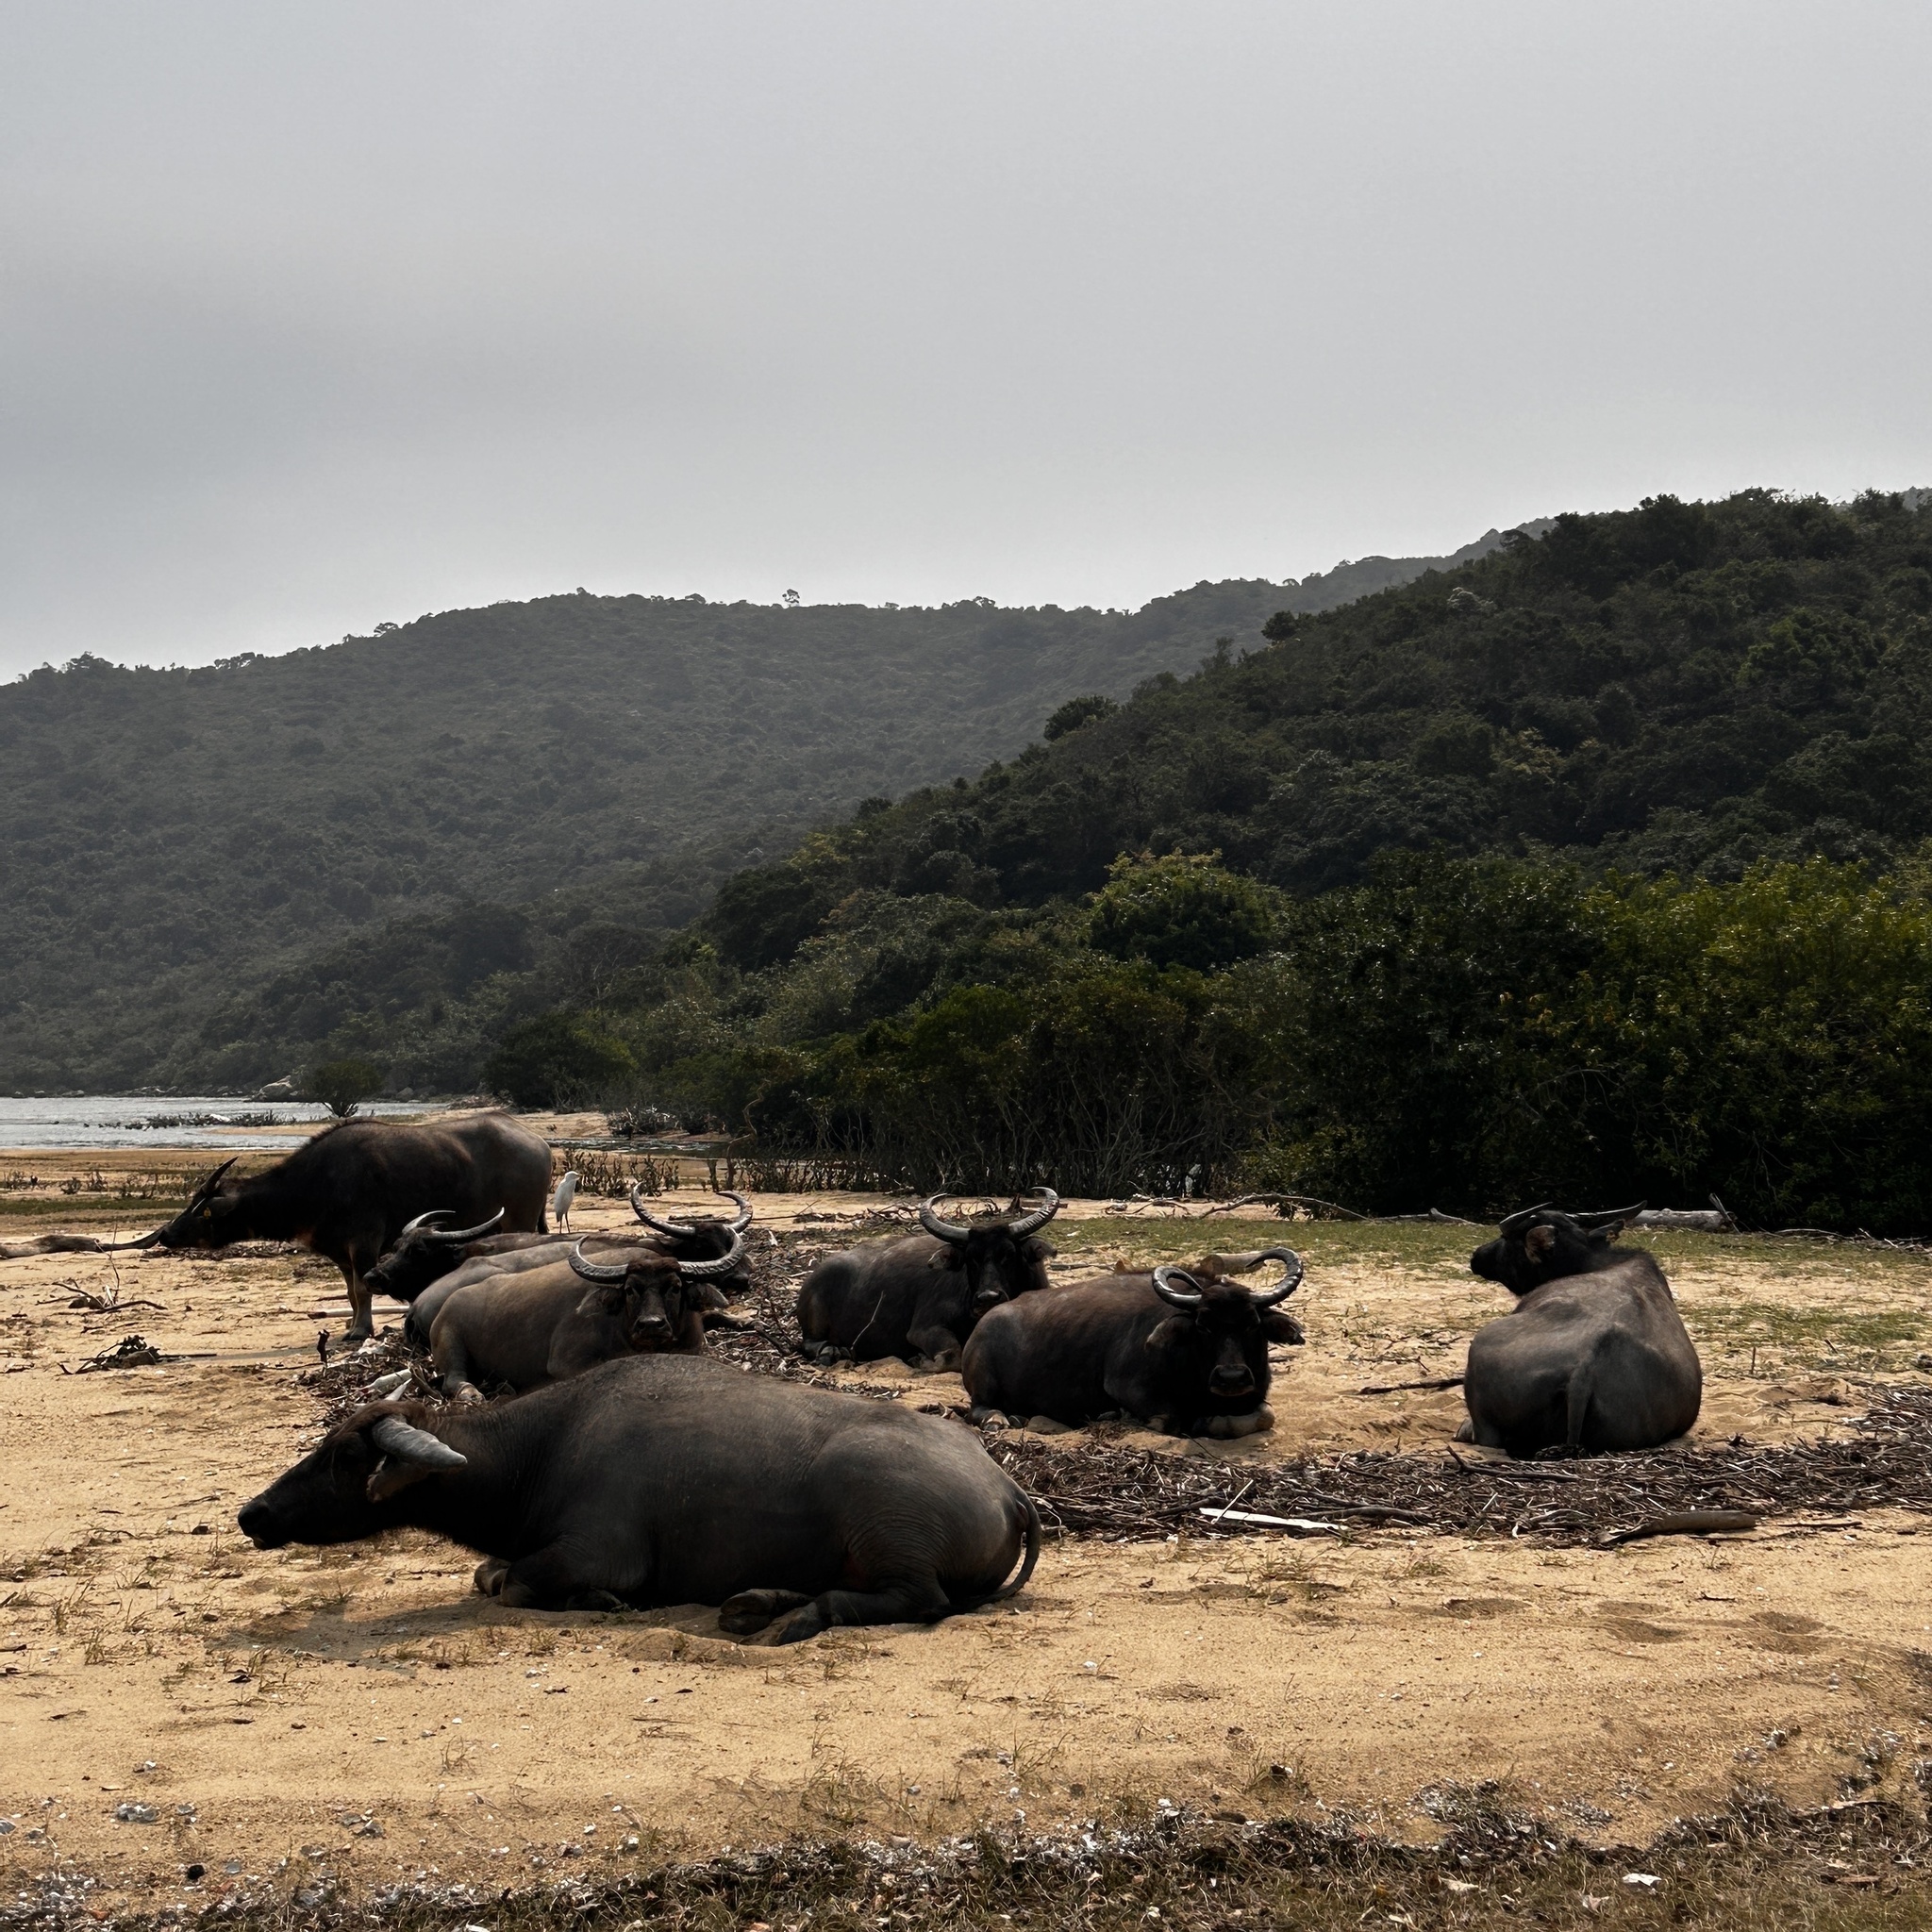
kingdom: Animalia
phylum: Chordata
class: Mammalia
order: Artiodactyla
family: Bovidae
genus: Bubalus
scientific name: Bubalus bubalis
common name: Water buffalo
